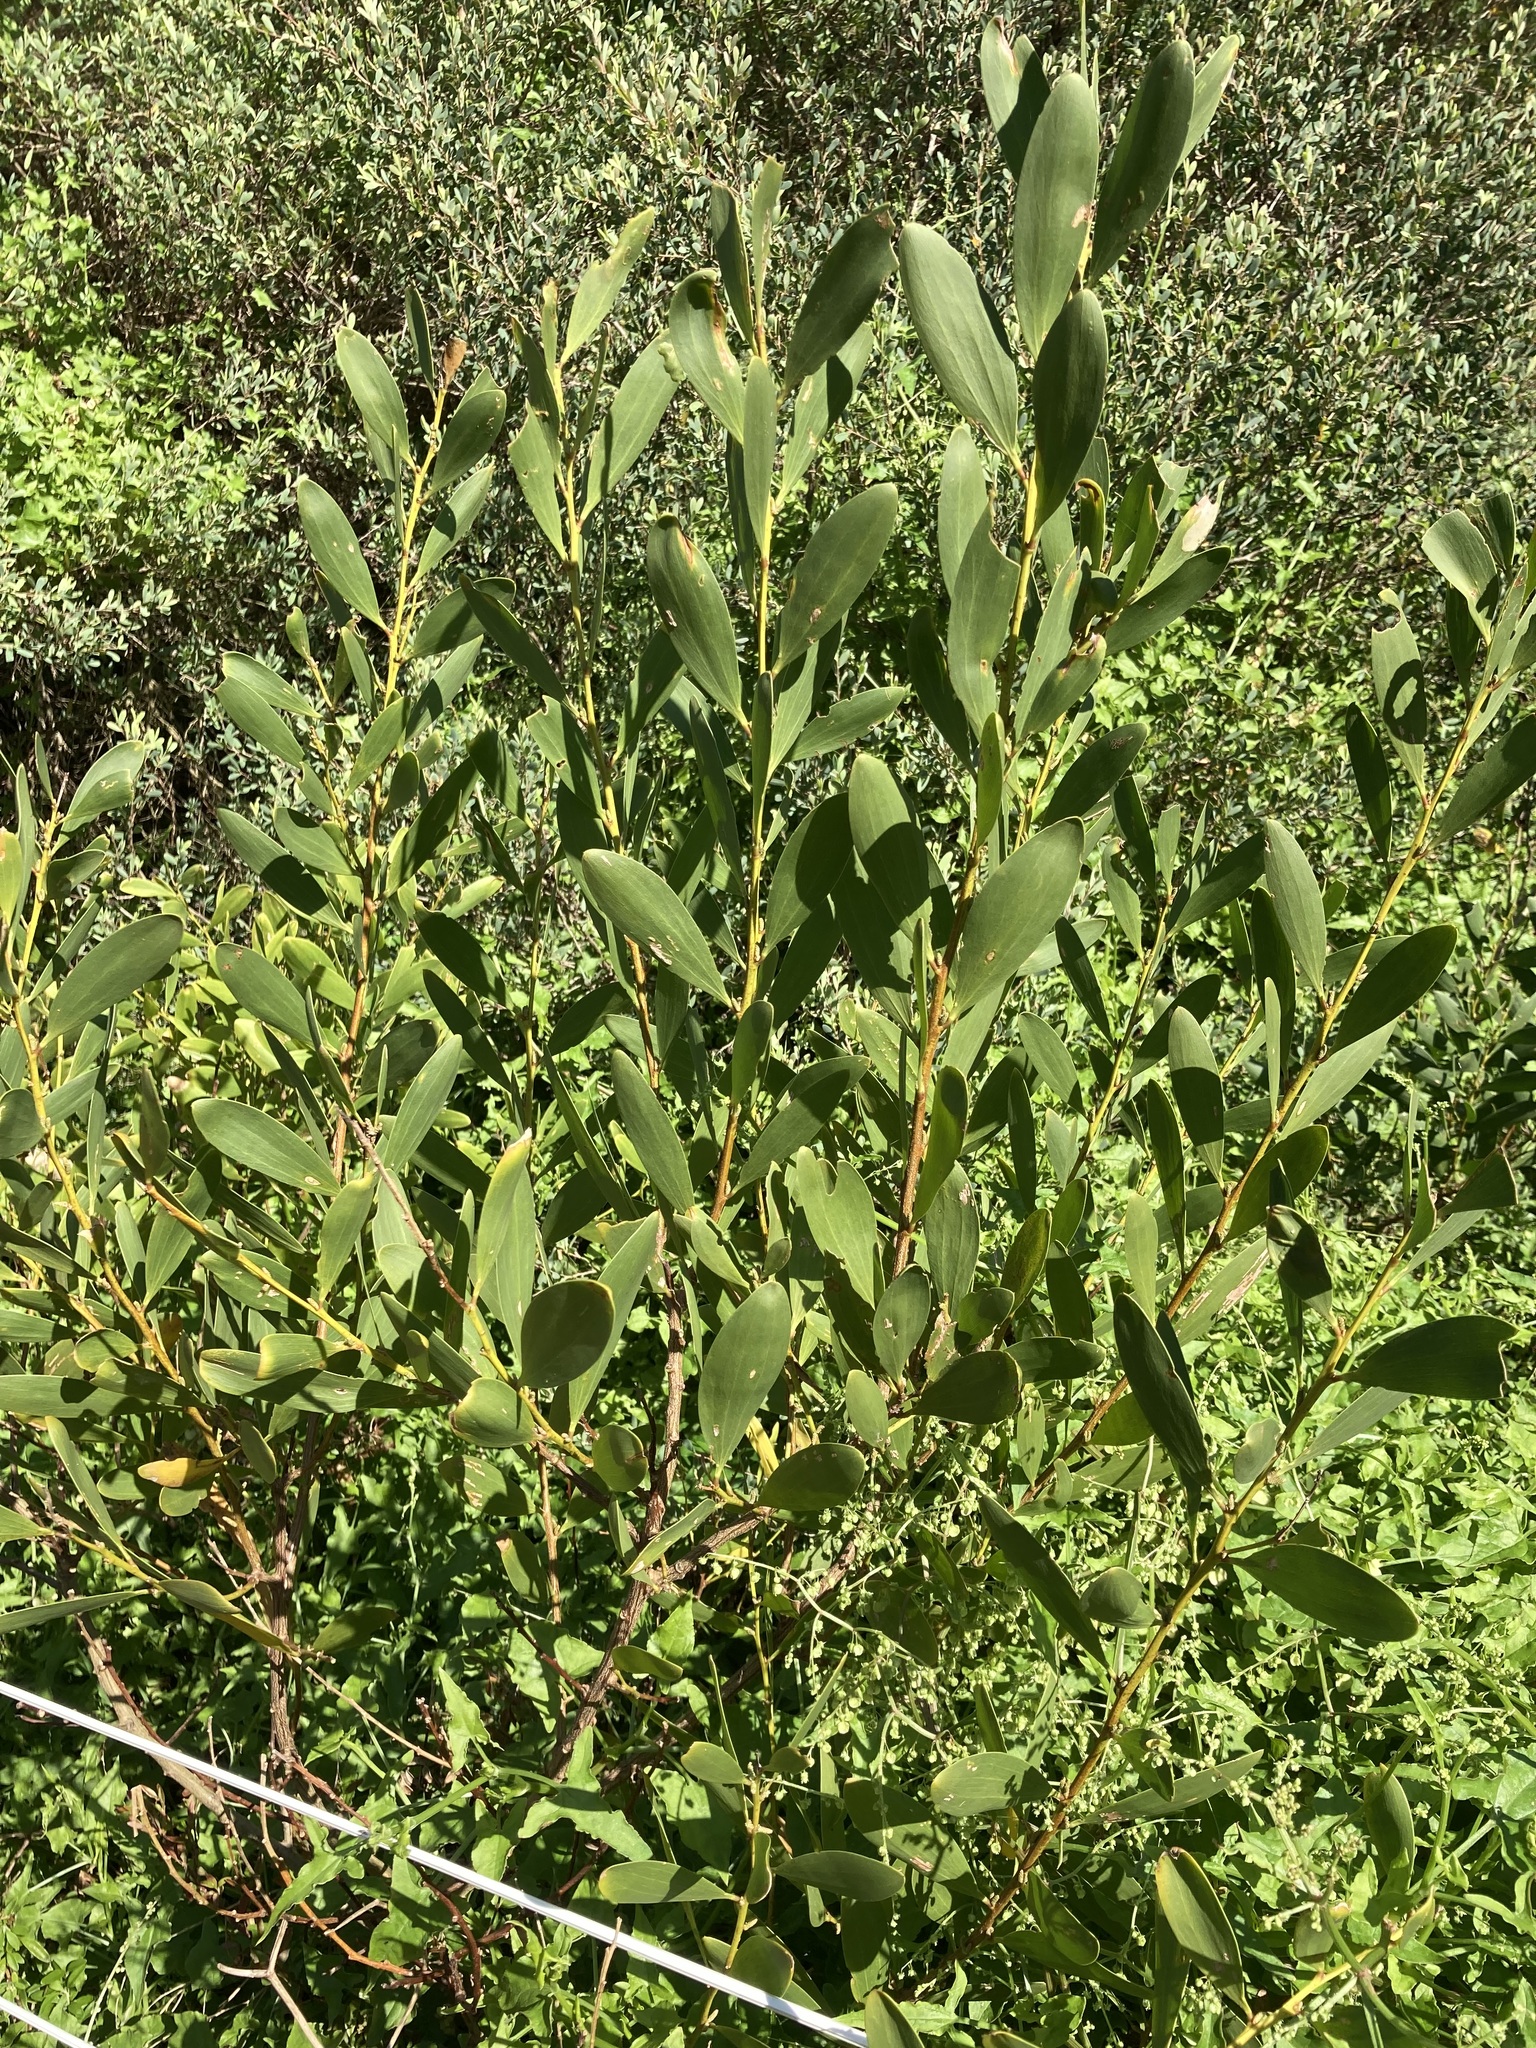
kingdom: Plantae
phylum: Tracheophyta
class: Magnoliopsida
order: Fabales
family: Fabaceae
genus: Acacia
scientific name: Acacia longifolia
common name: Sydney golden wattle
